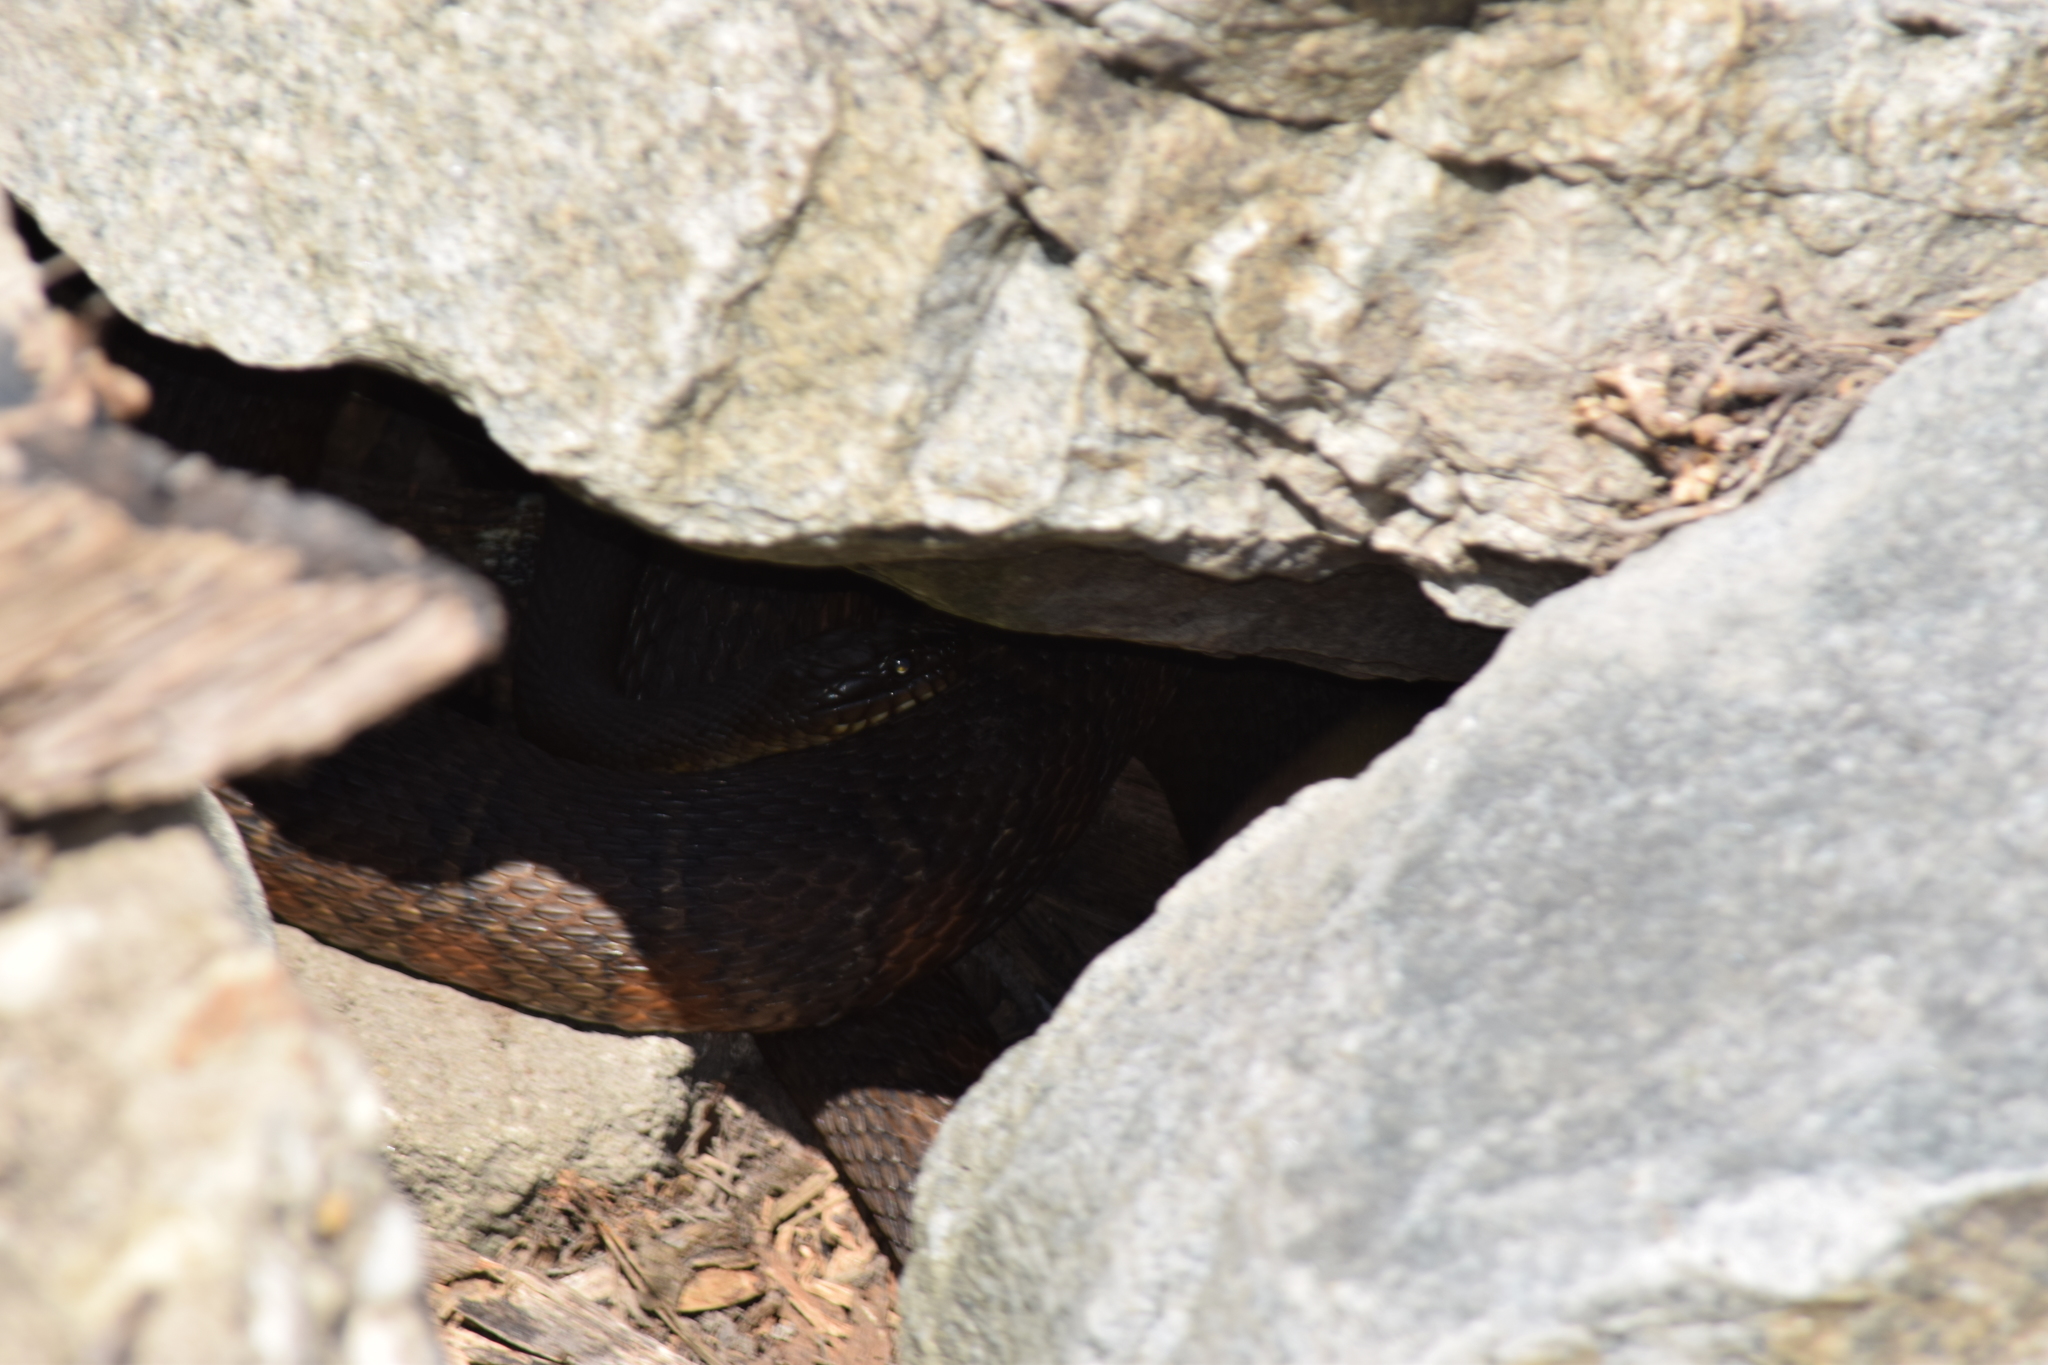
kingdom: Animalia
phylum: Chordata
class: Squamata
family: Colubridae
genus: Nerodia
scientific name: Nerodia sipedon
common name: Northern water snake
